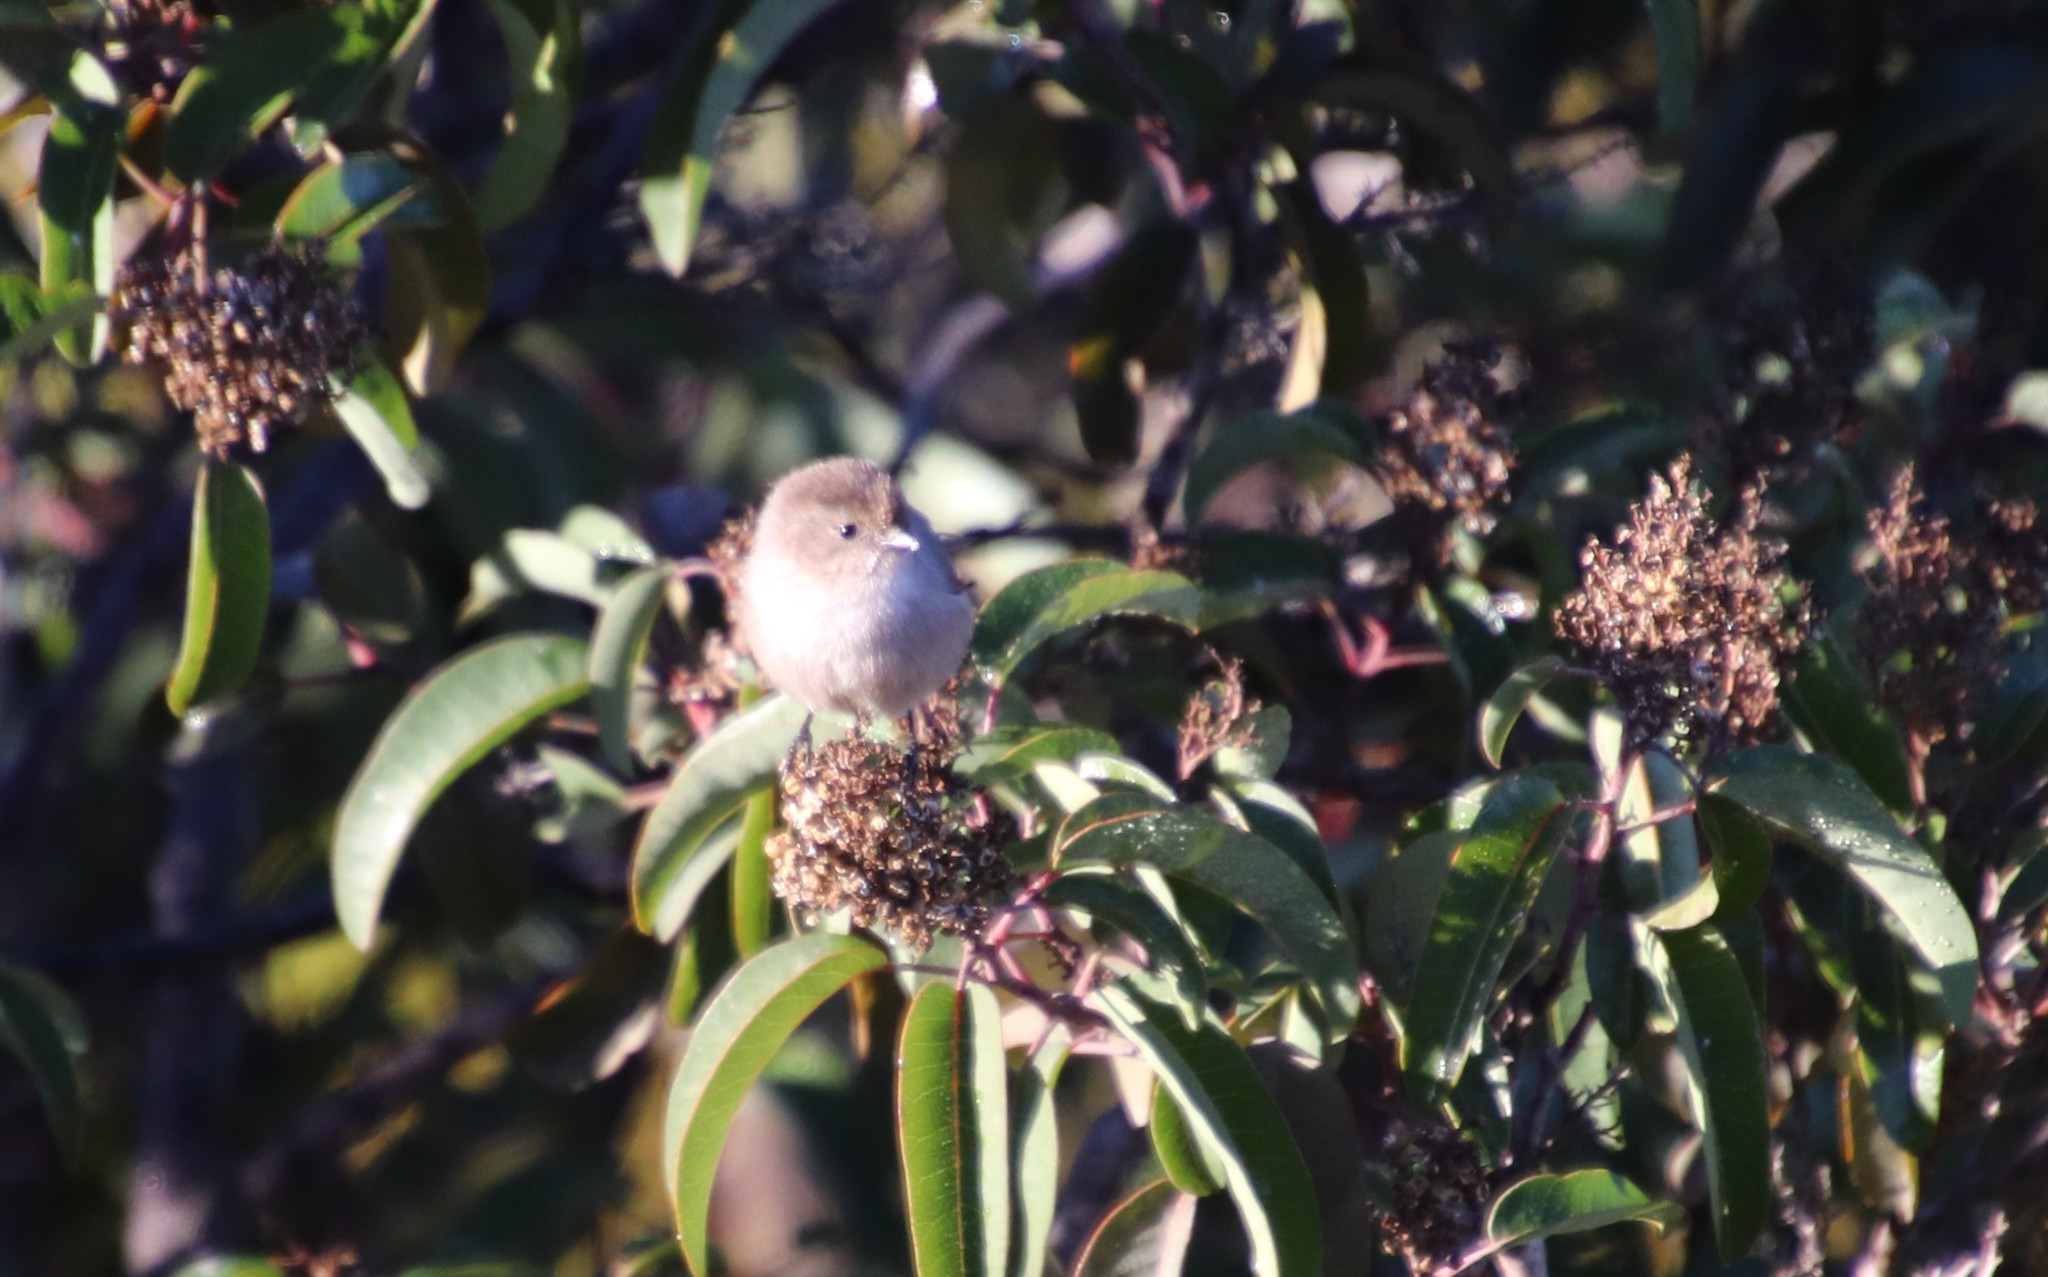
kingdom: Animalia
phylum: Chordata
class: Aves
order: Passeriformes
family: Aegithalidae
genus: Psaltriparus
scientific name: Psaltriparus minimus
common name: American bushtit
